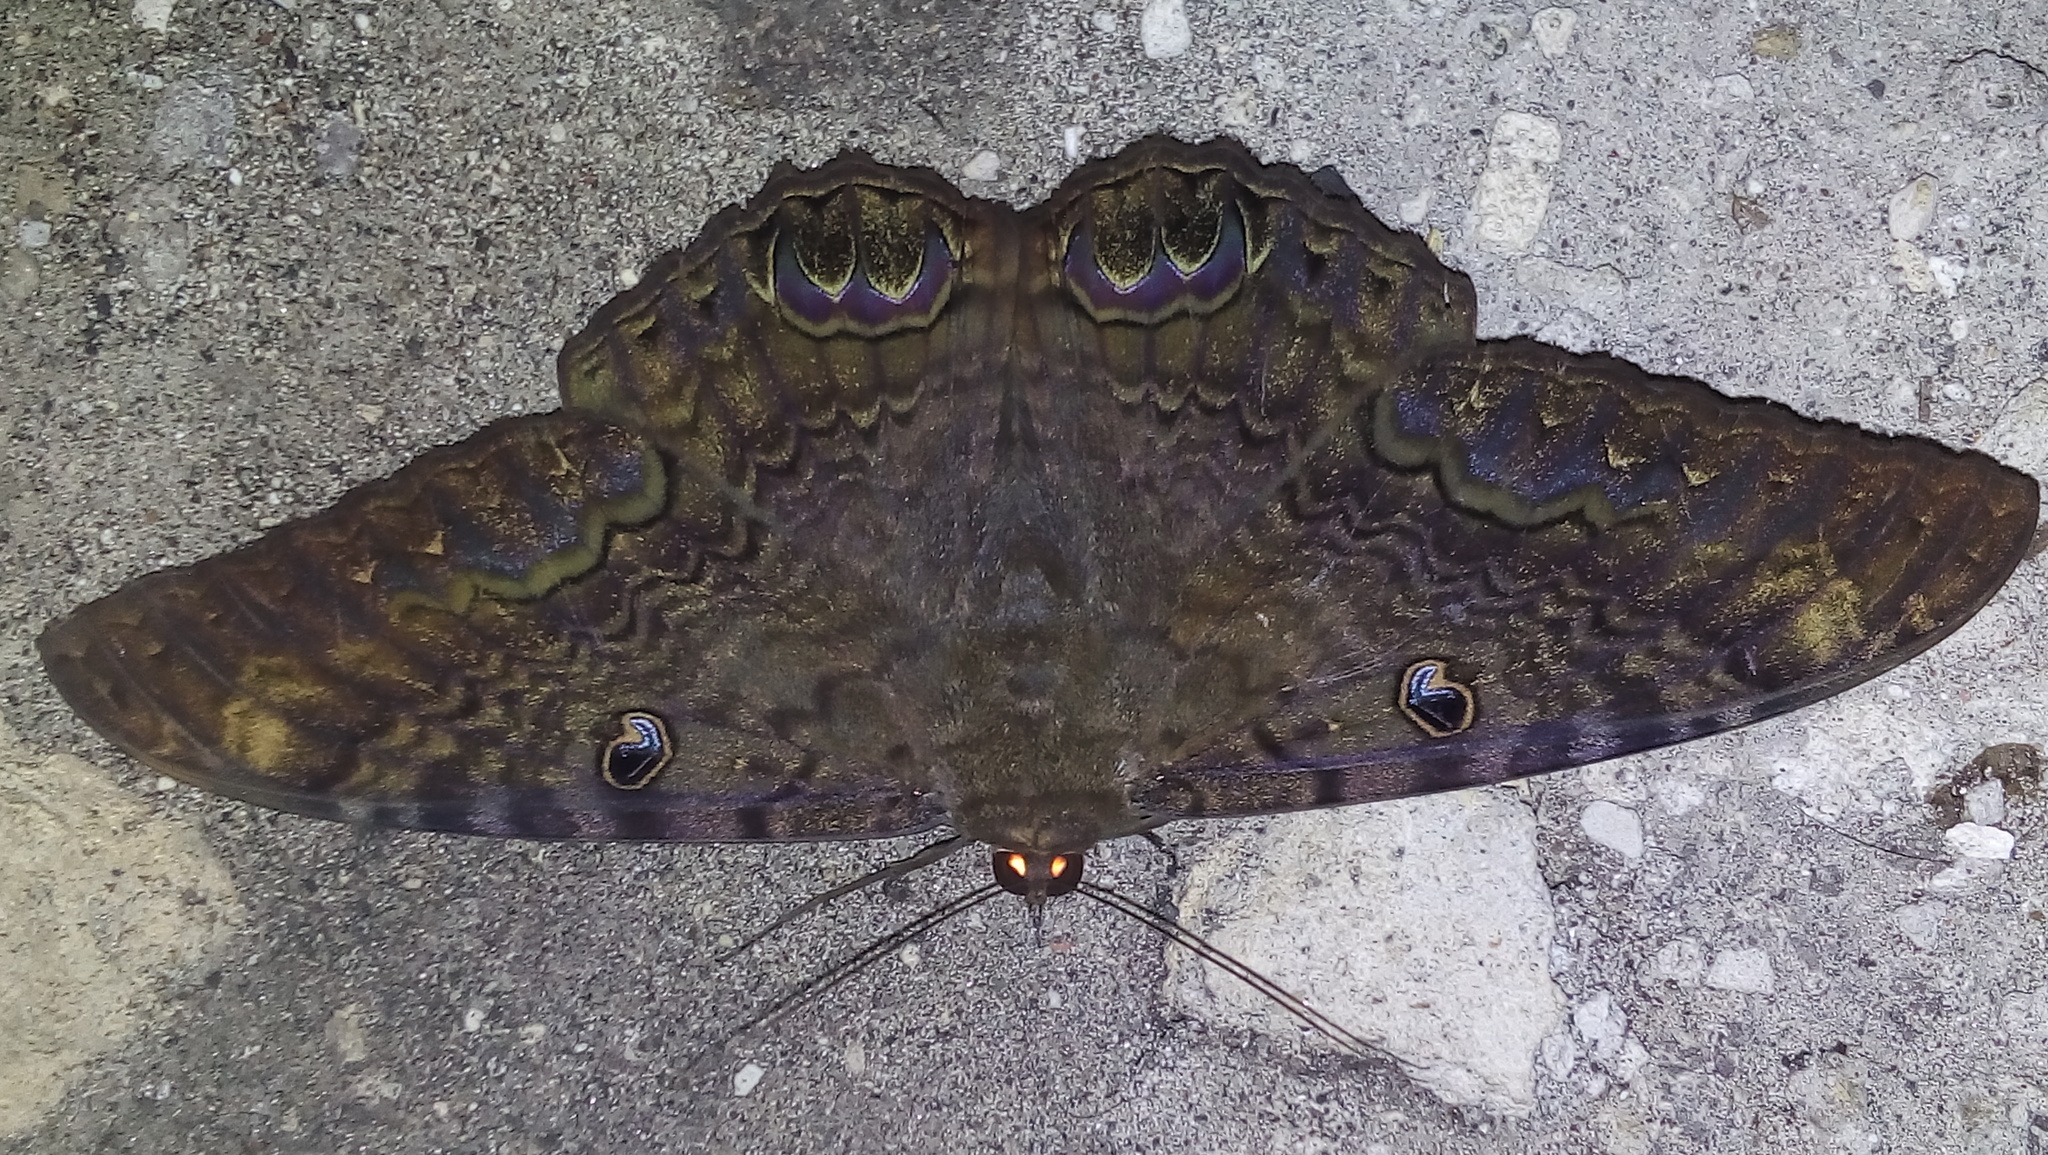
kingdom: Animalia
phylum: Arthropoda
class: Insecta
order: Lepidoptera
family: Erebidae
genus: Ascalapha
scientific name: Ascalapha odorata
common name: Black witch
